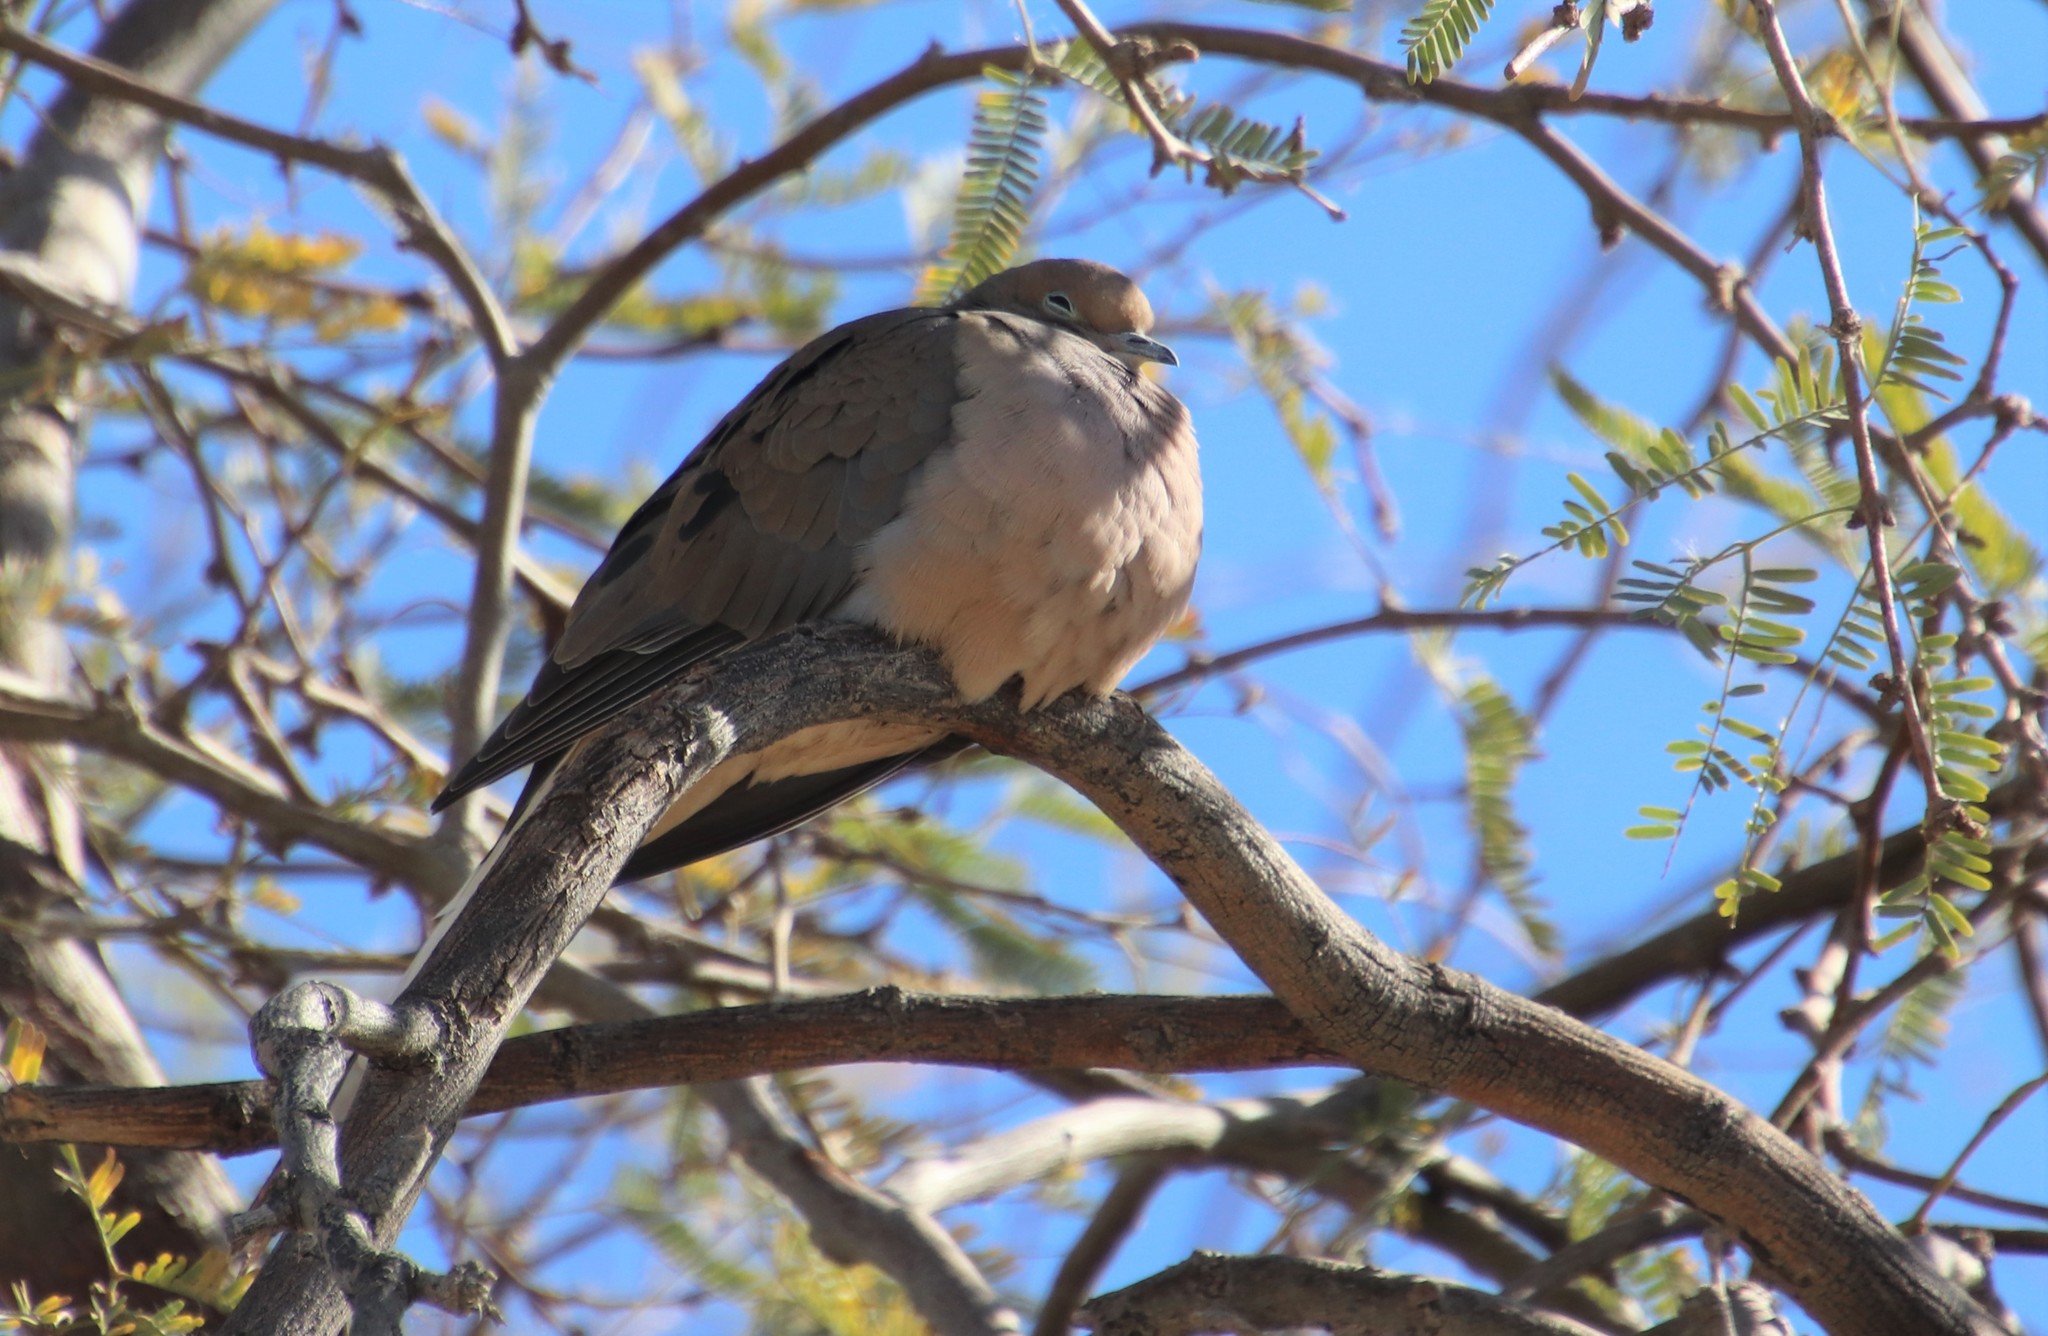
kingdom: Animalia
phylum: Chordata
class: Aves
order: Columbiformes
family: Columbidae
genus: Zenaida
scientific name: Zenaida macroura
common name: Mourning dove
